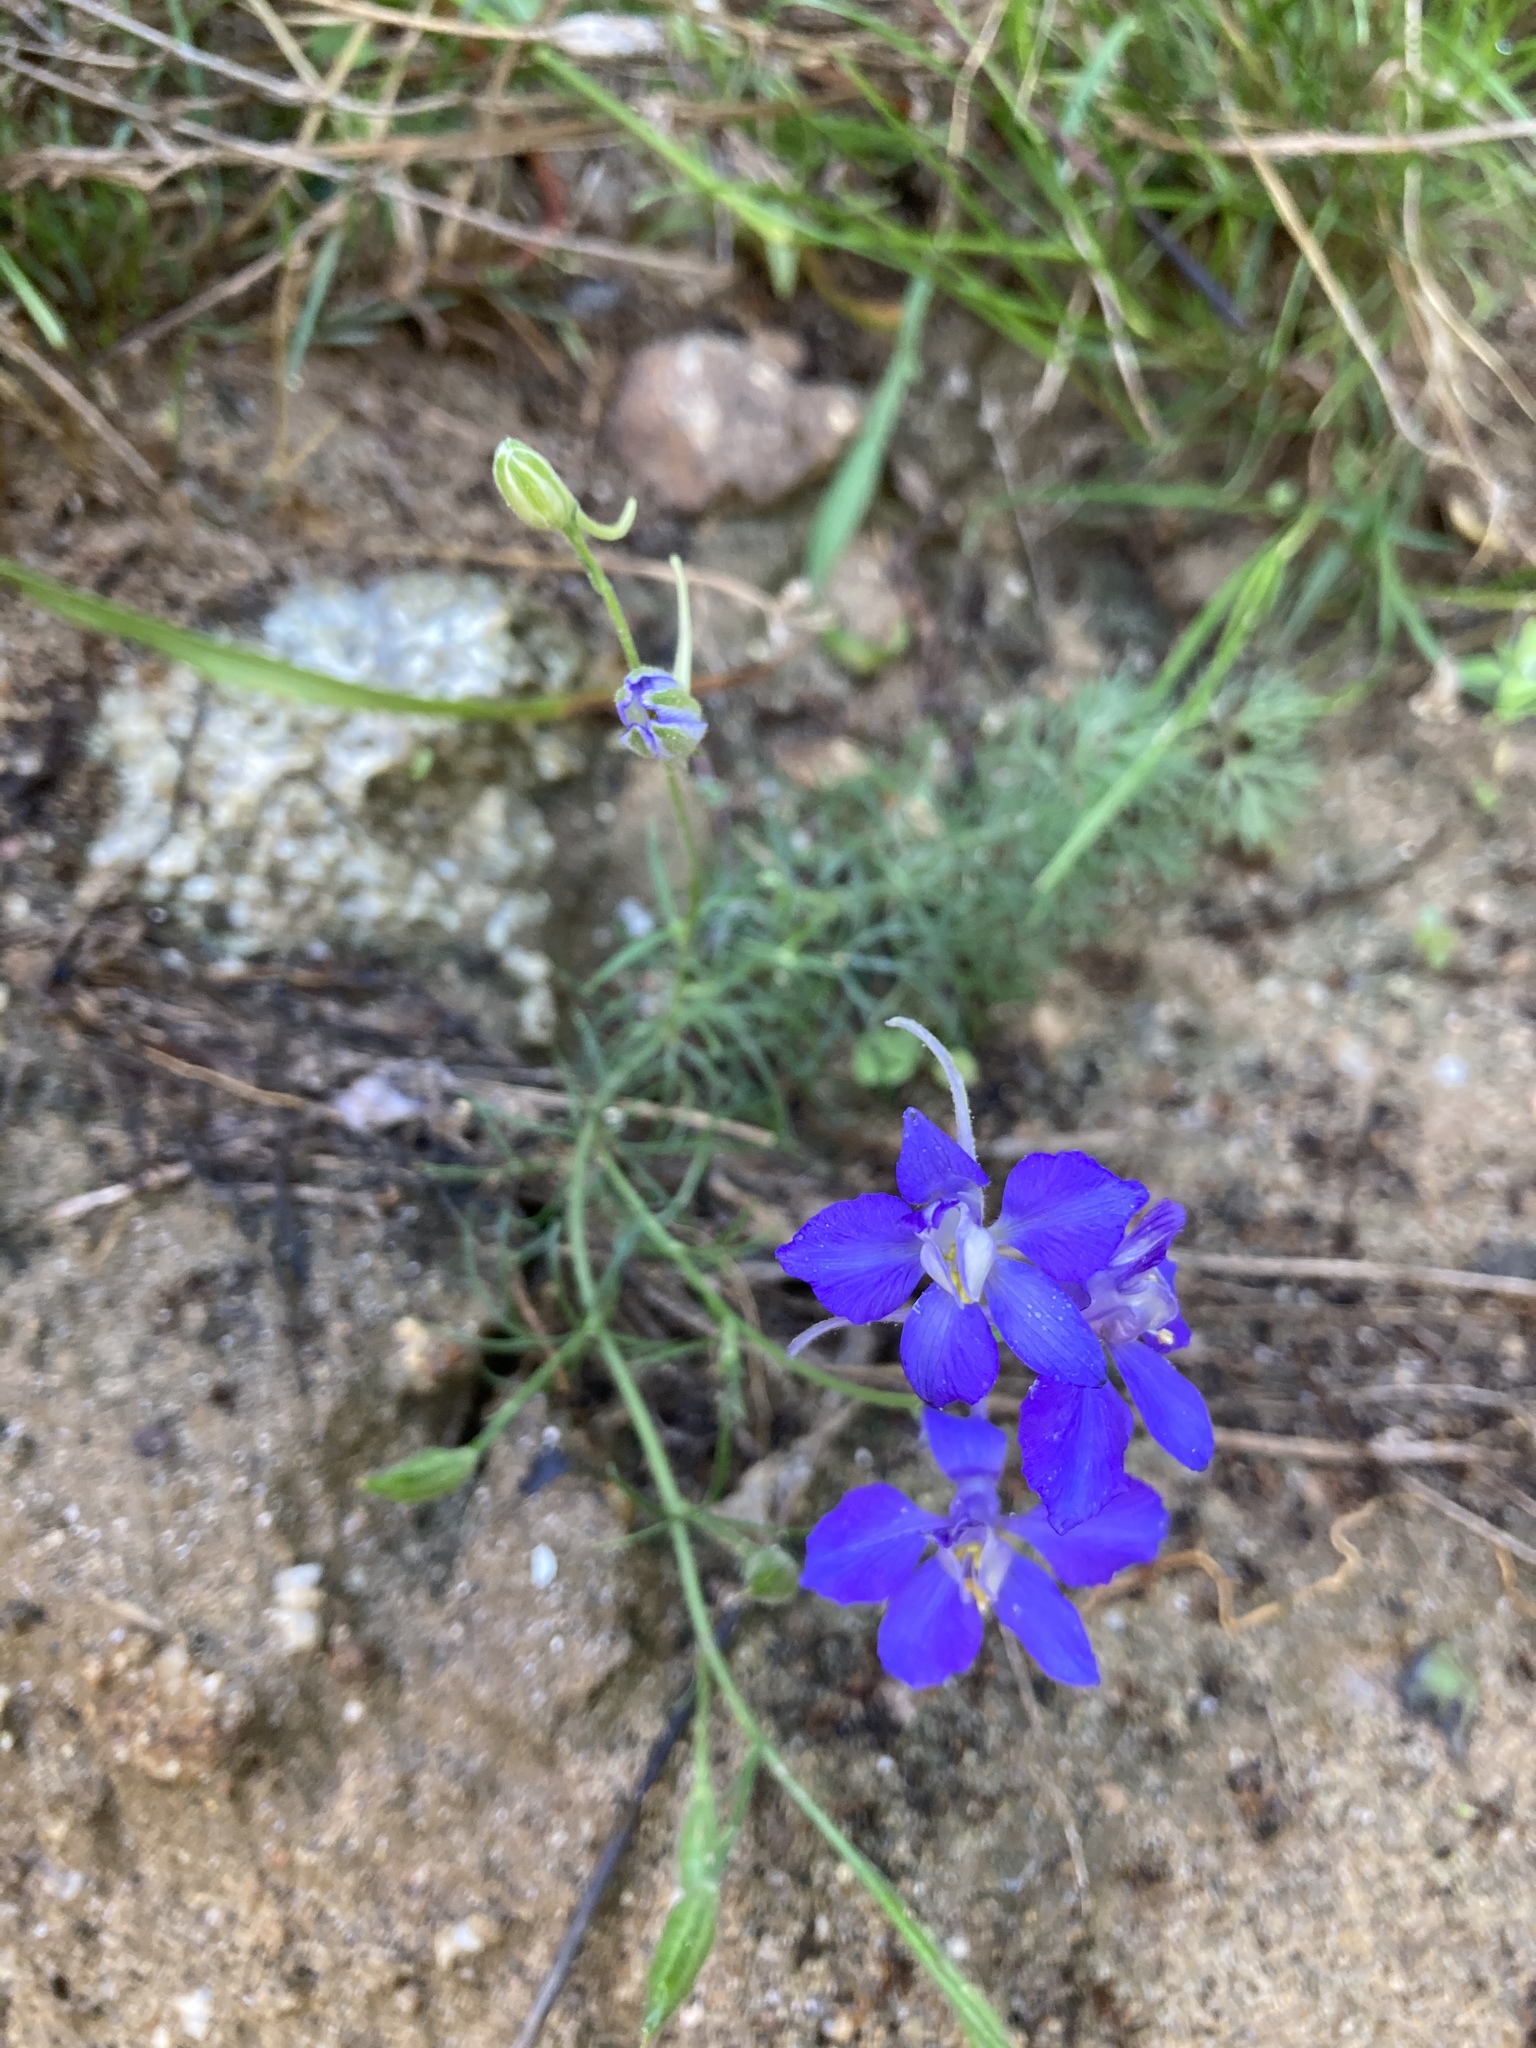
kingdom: Plantae
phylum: Tracheophyta
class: Magnoliopsida
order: Ranunculales
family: Ranunculaceae
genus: Delphinium
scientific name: Delphinium ajacis
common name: Doubtful knight's-spur
